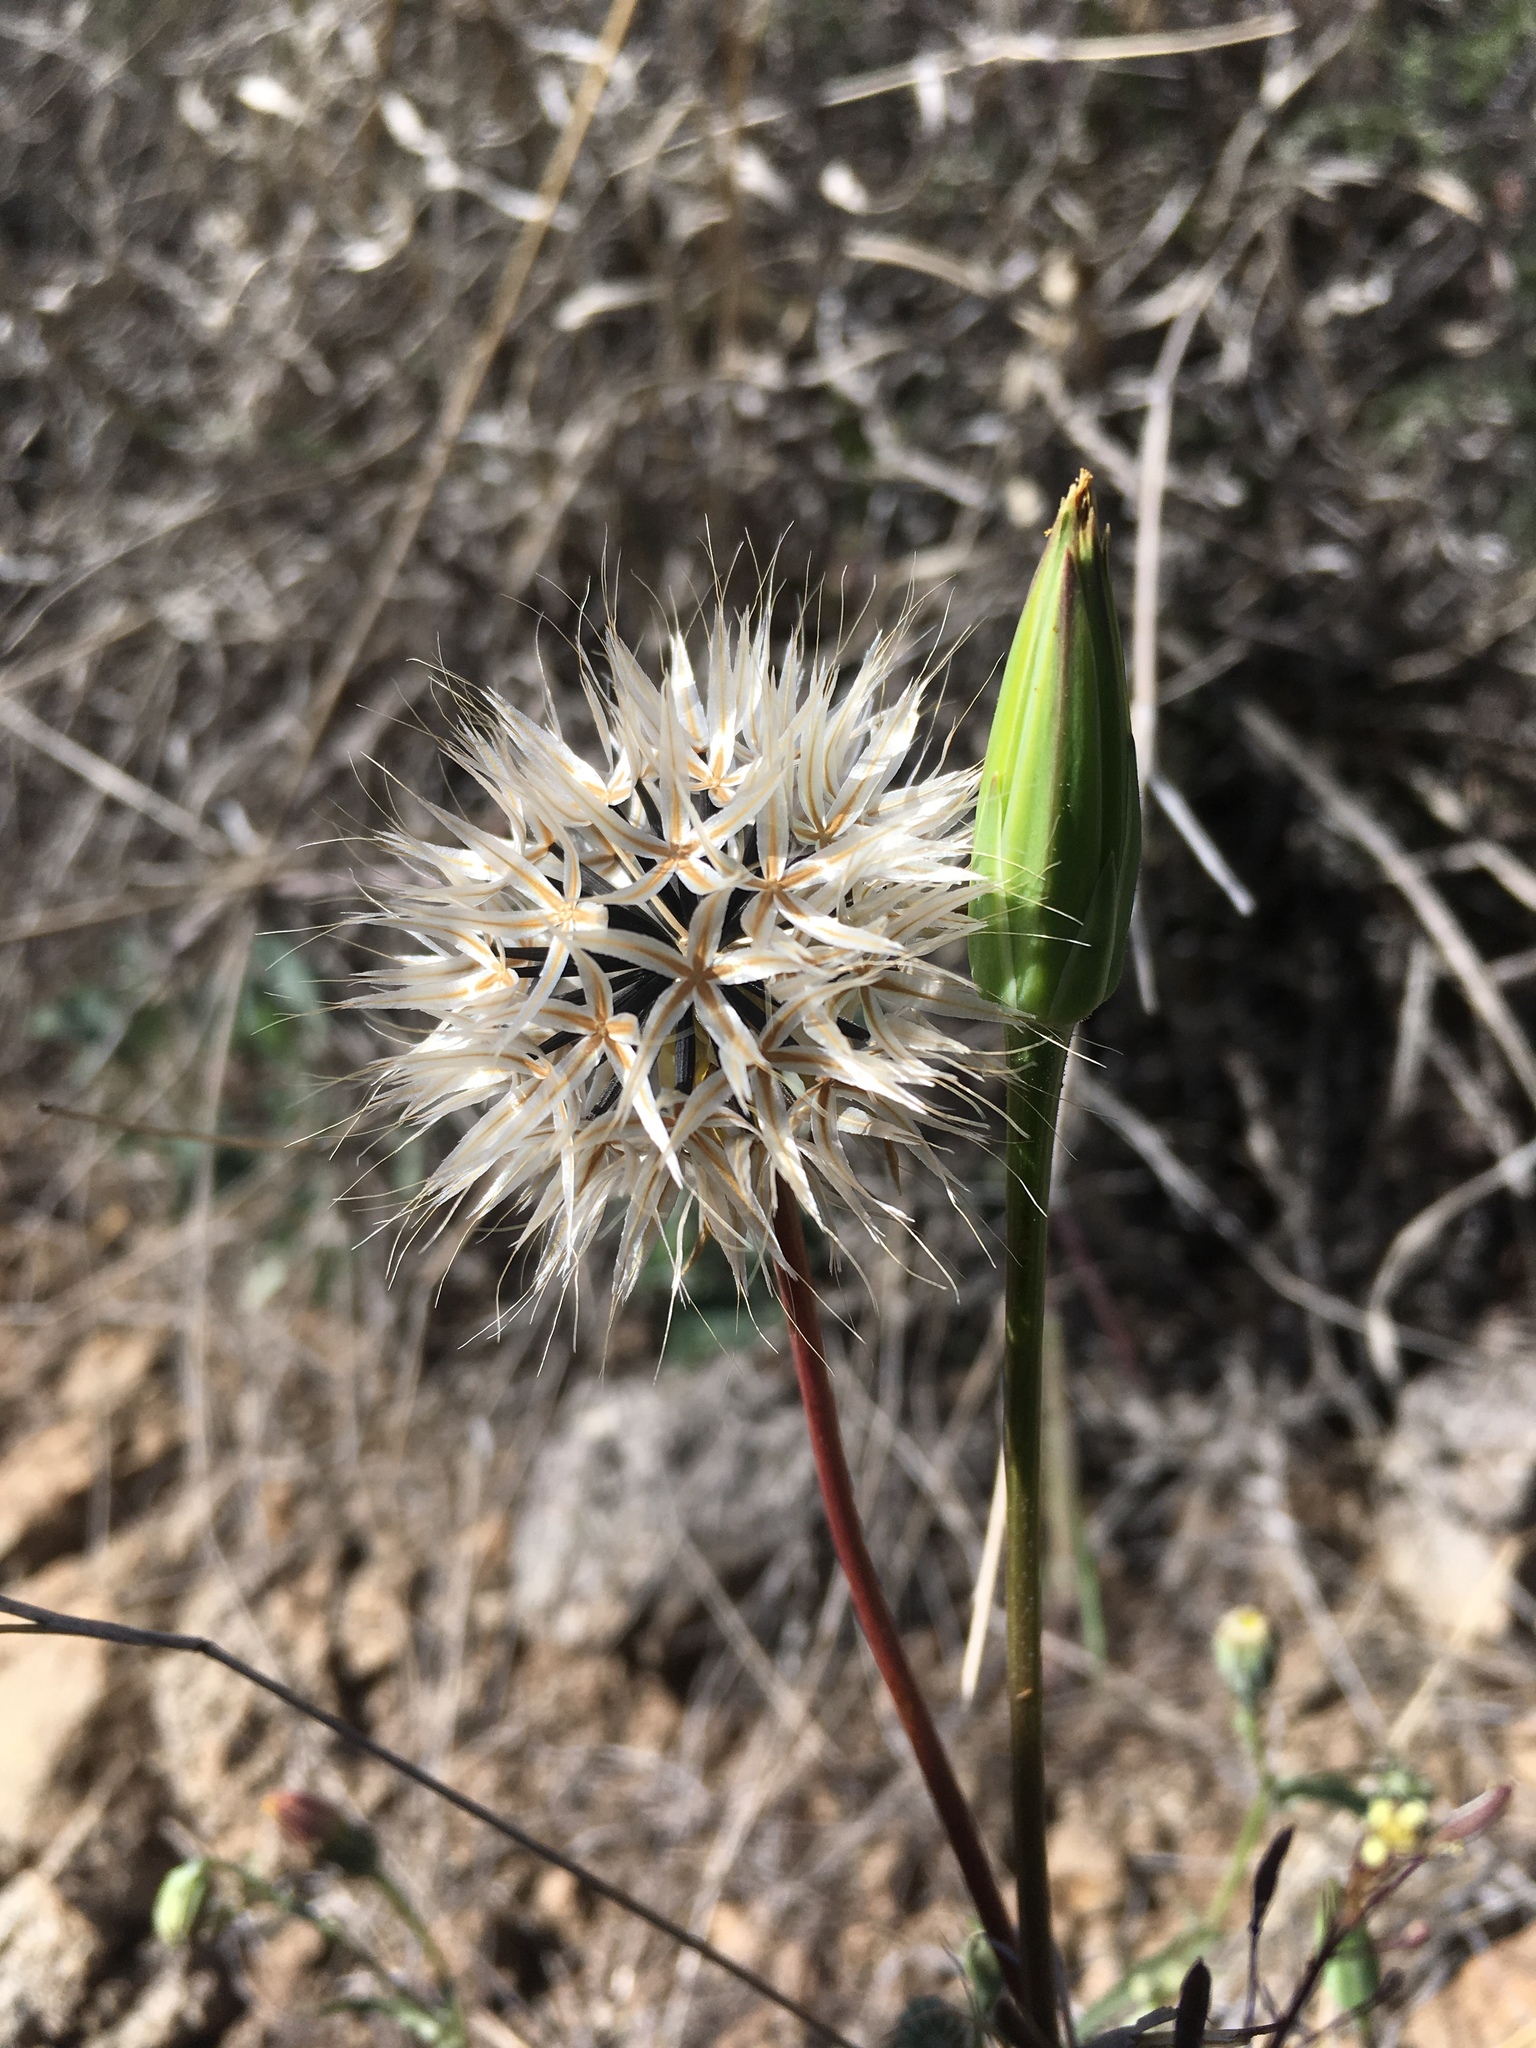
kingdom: Plantae
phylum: Tracheophyta
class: Magnoliopsida
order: Asterales
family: Asteraceae
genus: Microseris
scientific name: Microseris lindleyi
